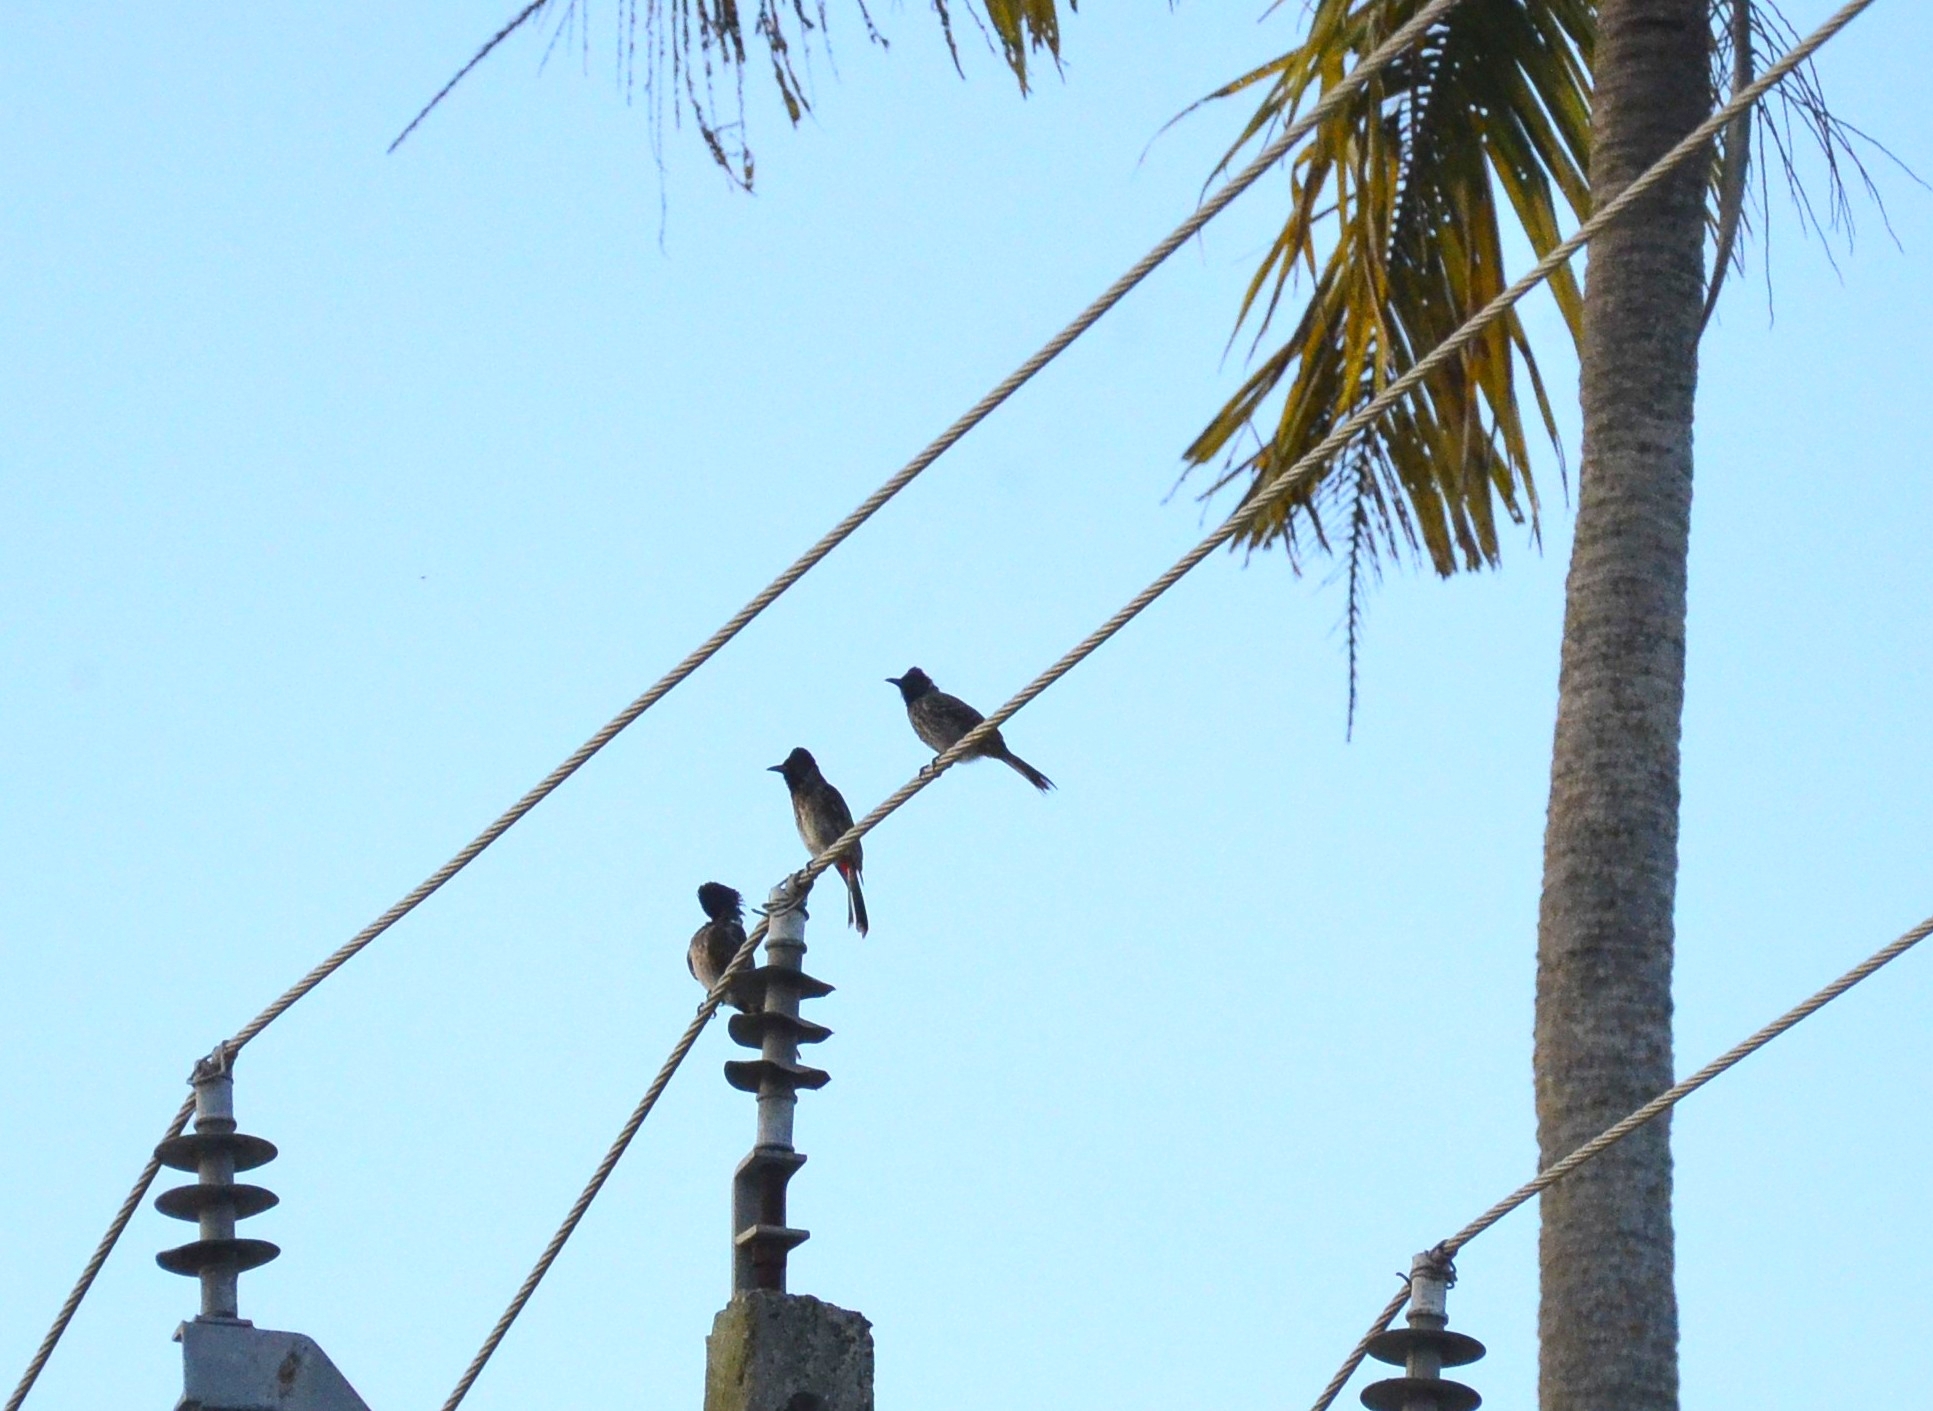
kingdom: Animalia
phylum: Chordata
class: Aves
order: Passeriformes
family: Pycnonotidae
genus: Pycnonotus
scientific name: Pycnonotus cafer
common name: Red-vented bulbul
